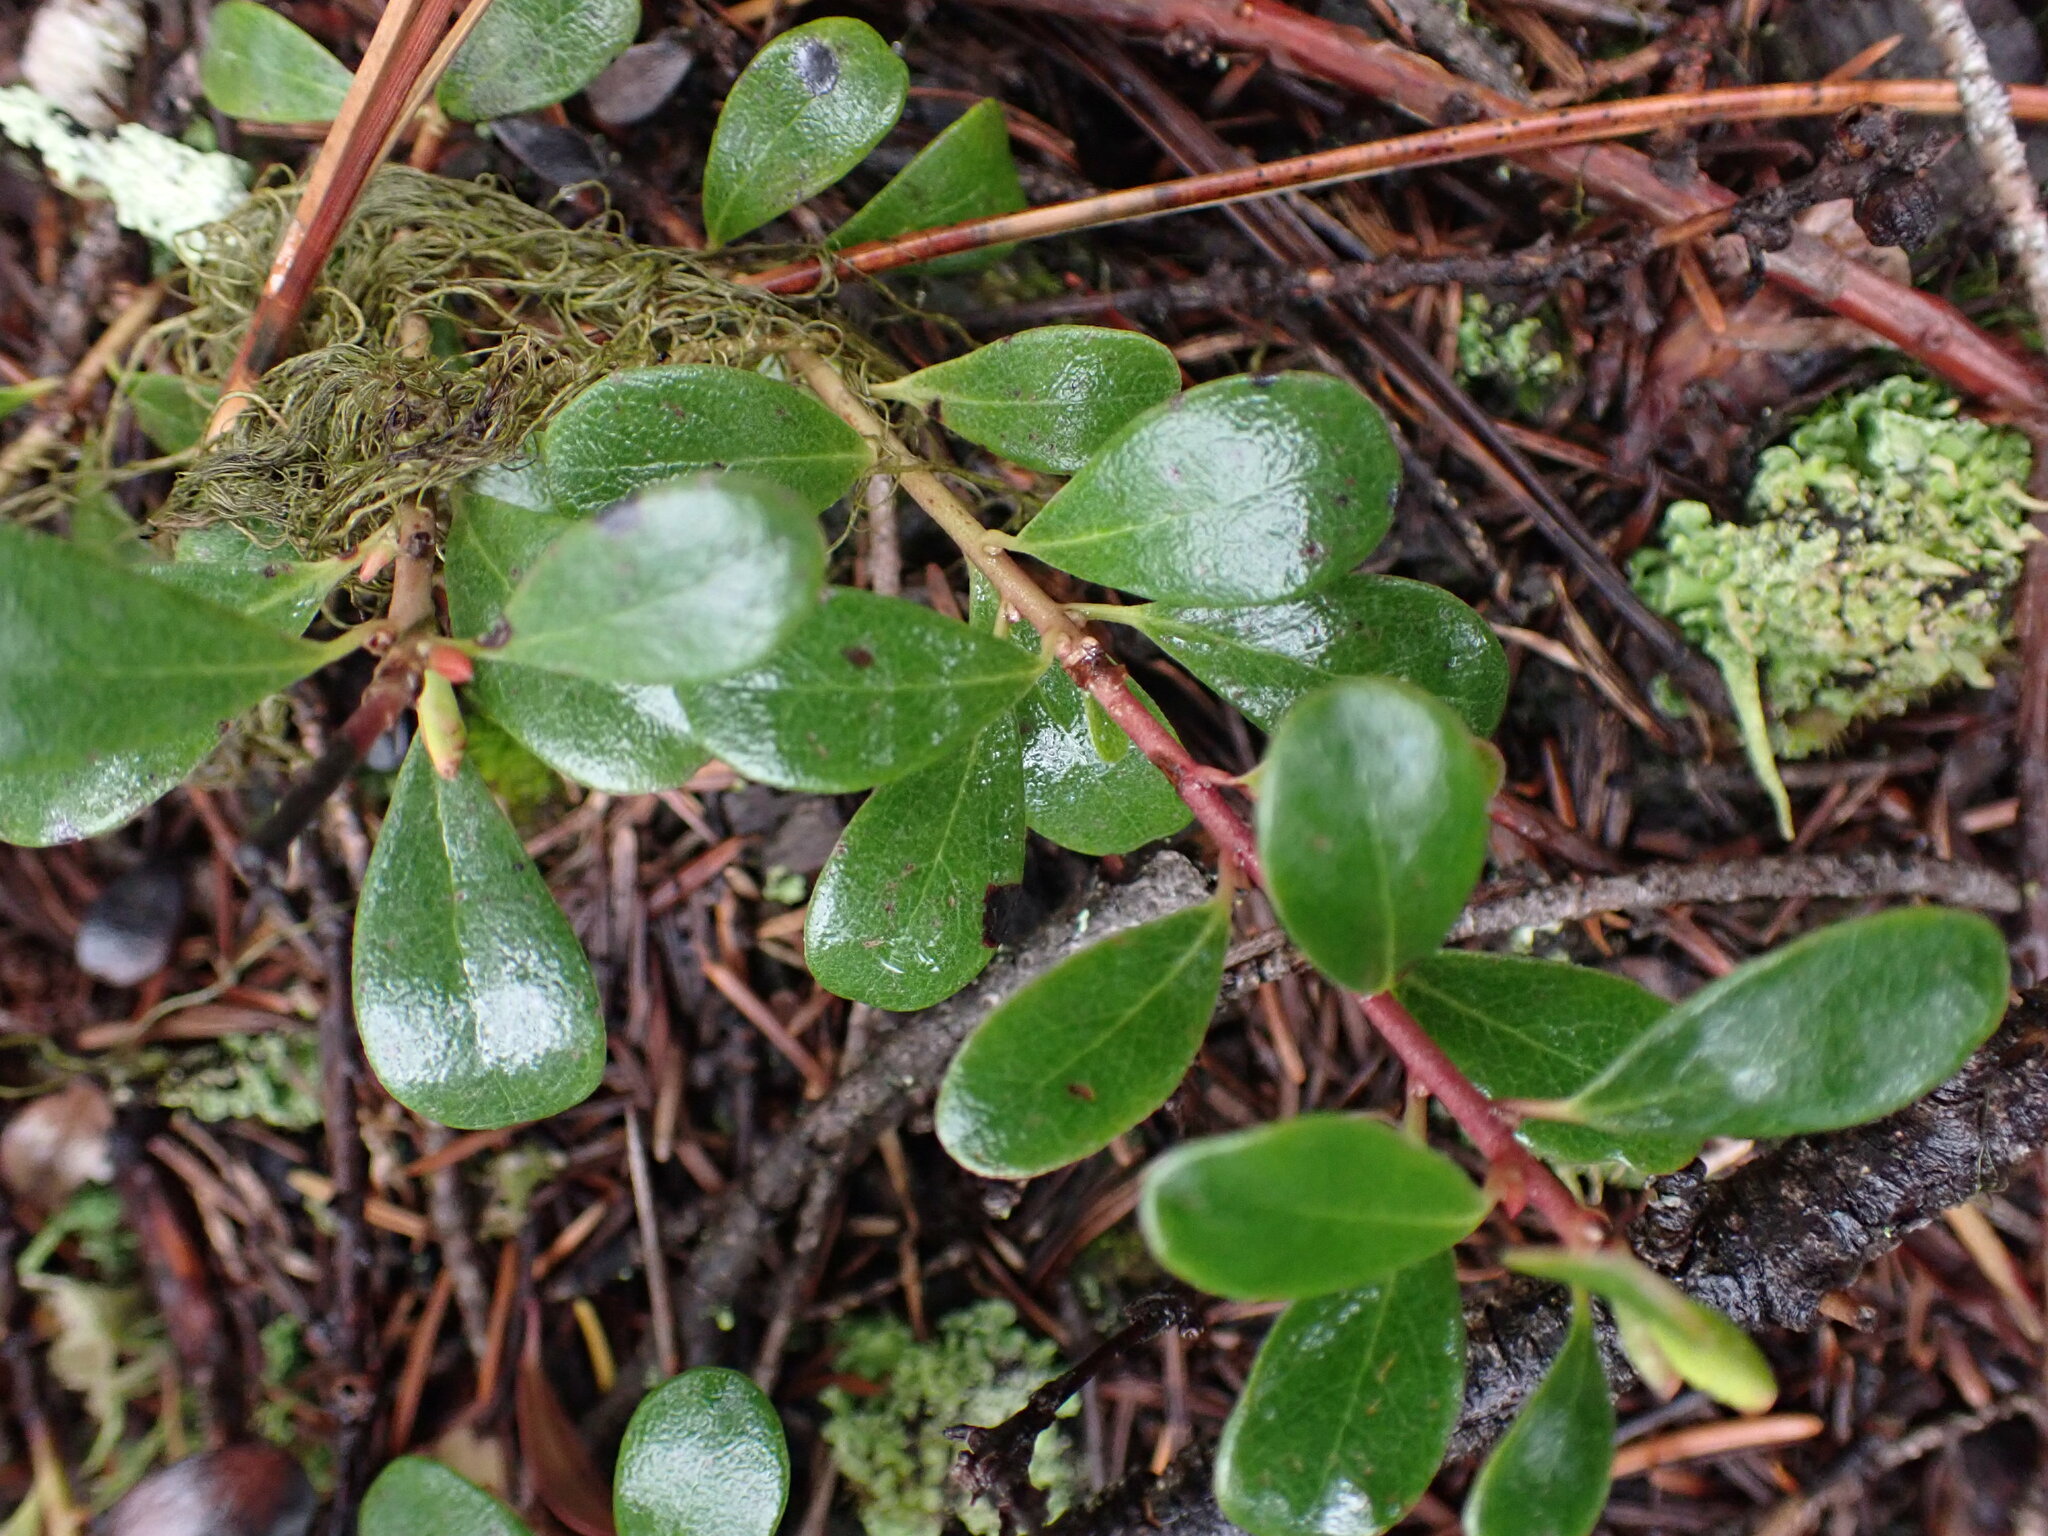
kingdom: Plantae
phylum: Tracheophyta
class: Magnoliopsida
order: Ericales
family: Ericaceae
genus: Arctostaphylos
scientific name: Arctostaphylos uva-ursi
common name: Bearberry
